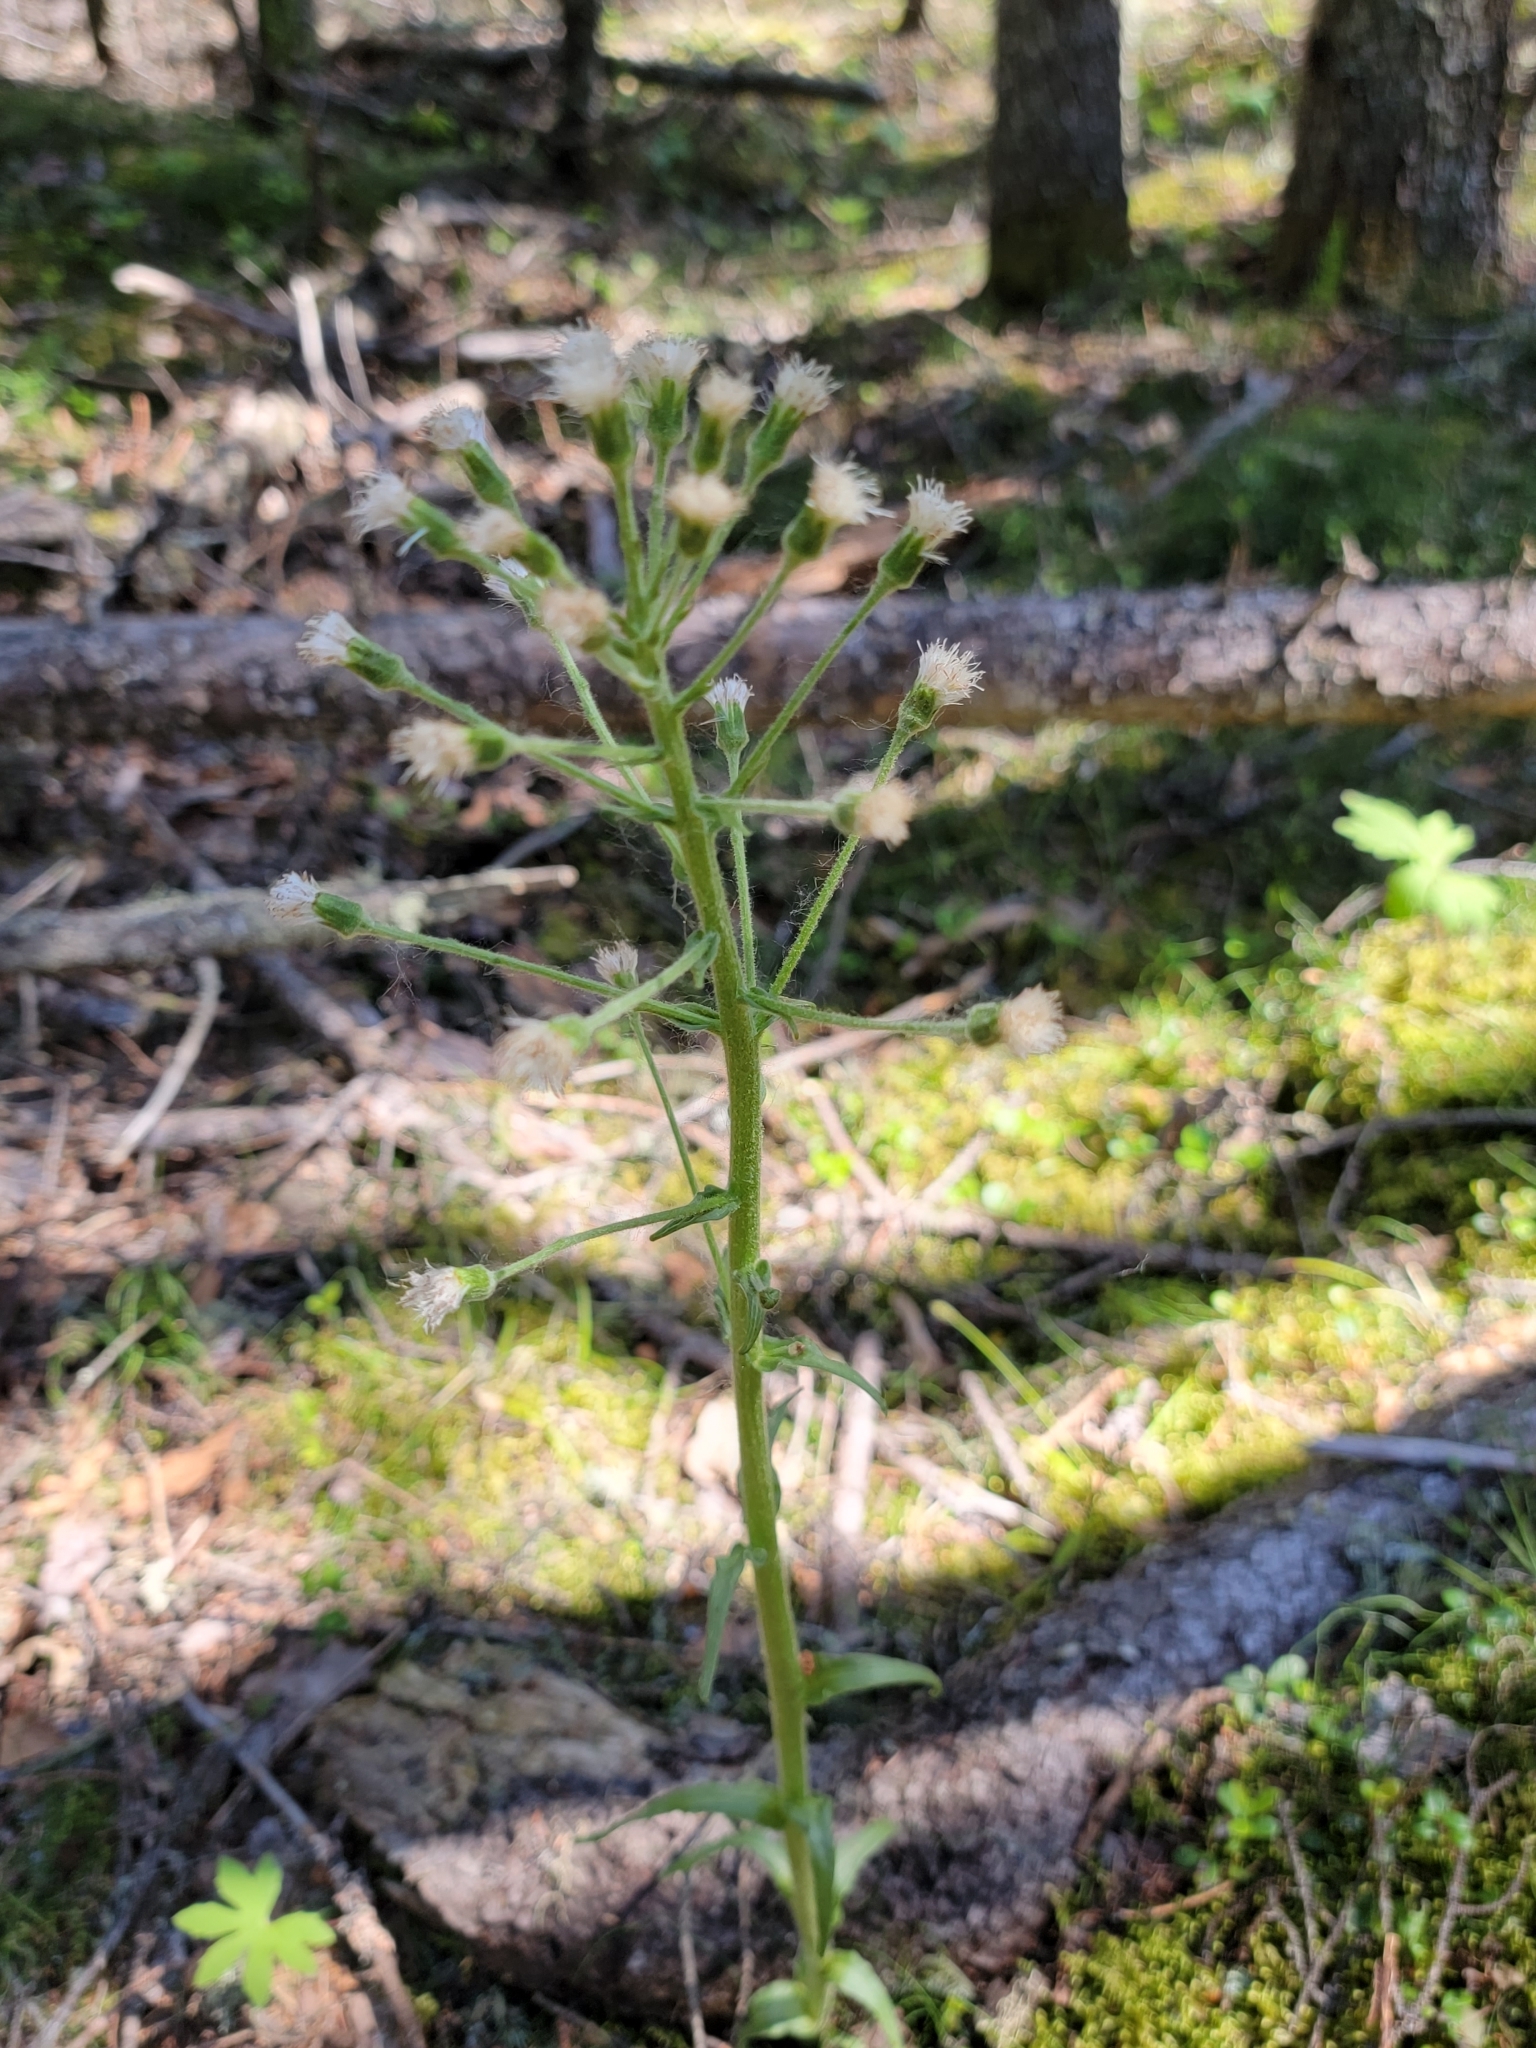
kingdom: Plantae
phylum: Tracheophyta
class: Magnoliopsida
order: Asterales
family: Asteraceae
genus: Petasites
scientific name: Petasites frigidus
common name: Arctic butterbur
